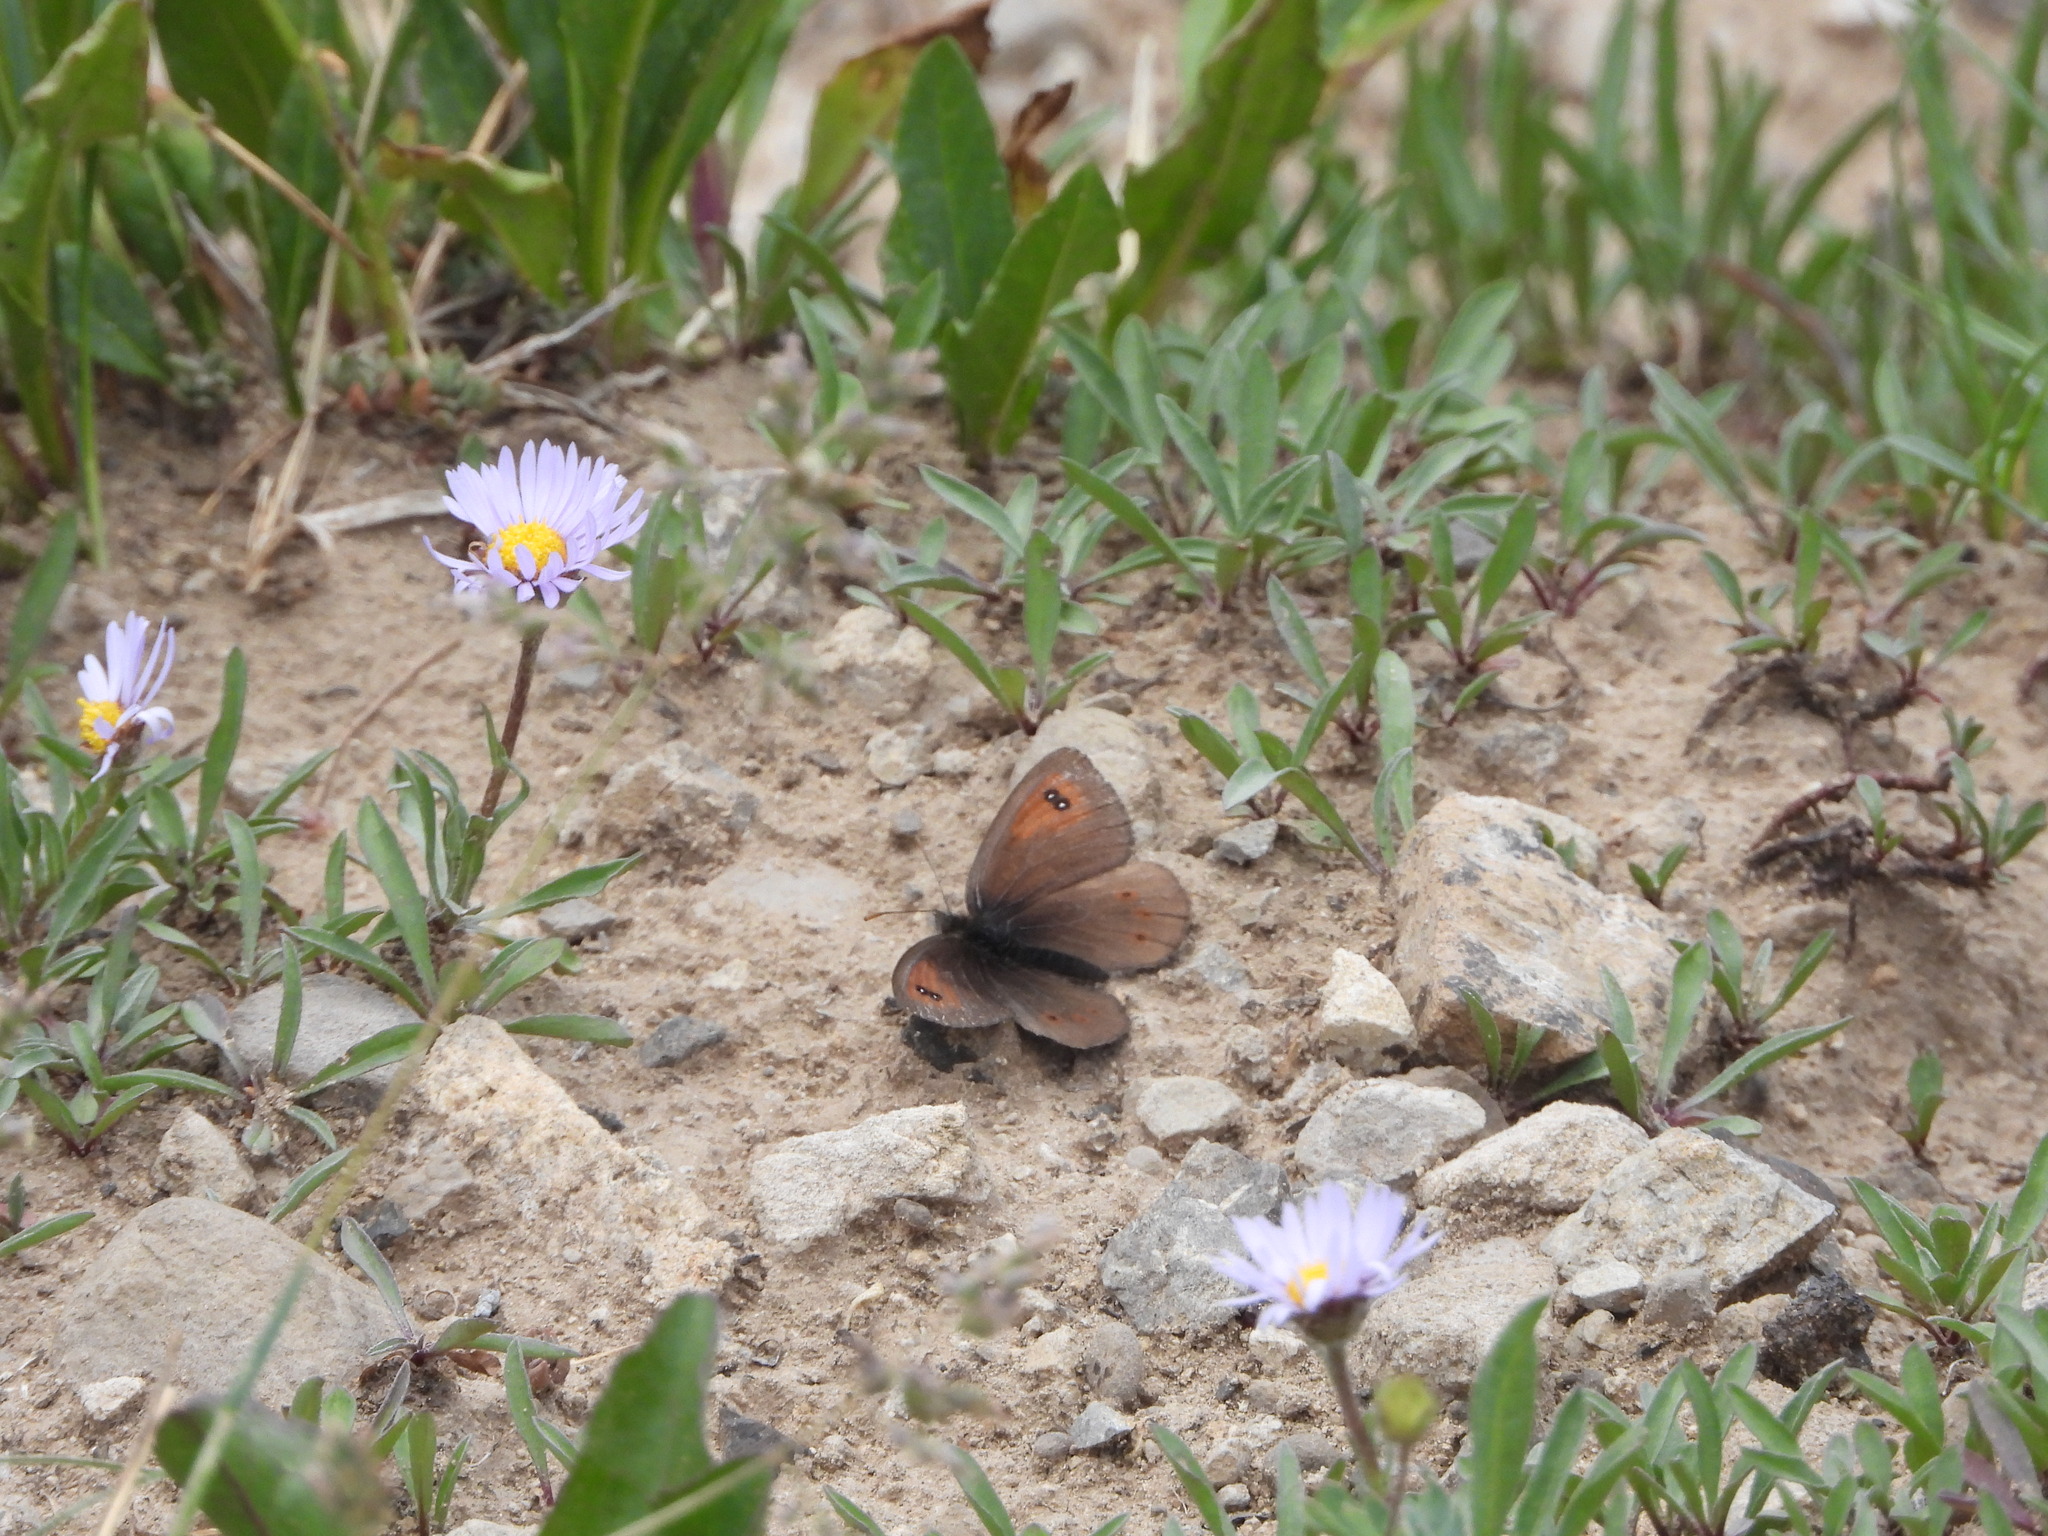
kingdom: Animalia
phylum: Arthropoda
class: Insecta
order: Lepidoptera
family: Nymphalidae
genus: Erebia
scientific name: Erebia tyndarus
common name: Swiss brassy ringlet
